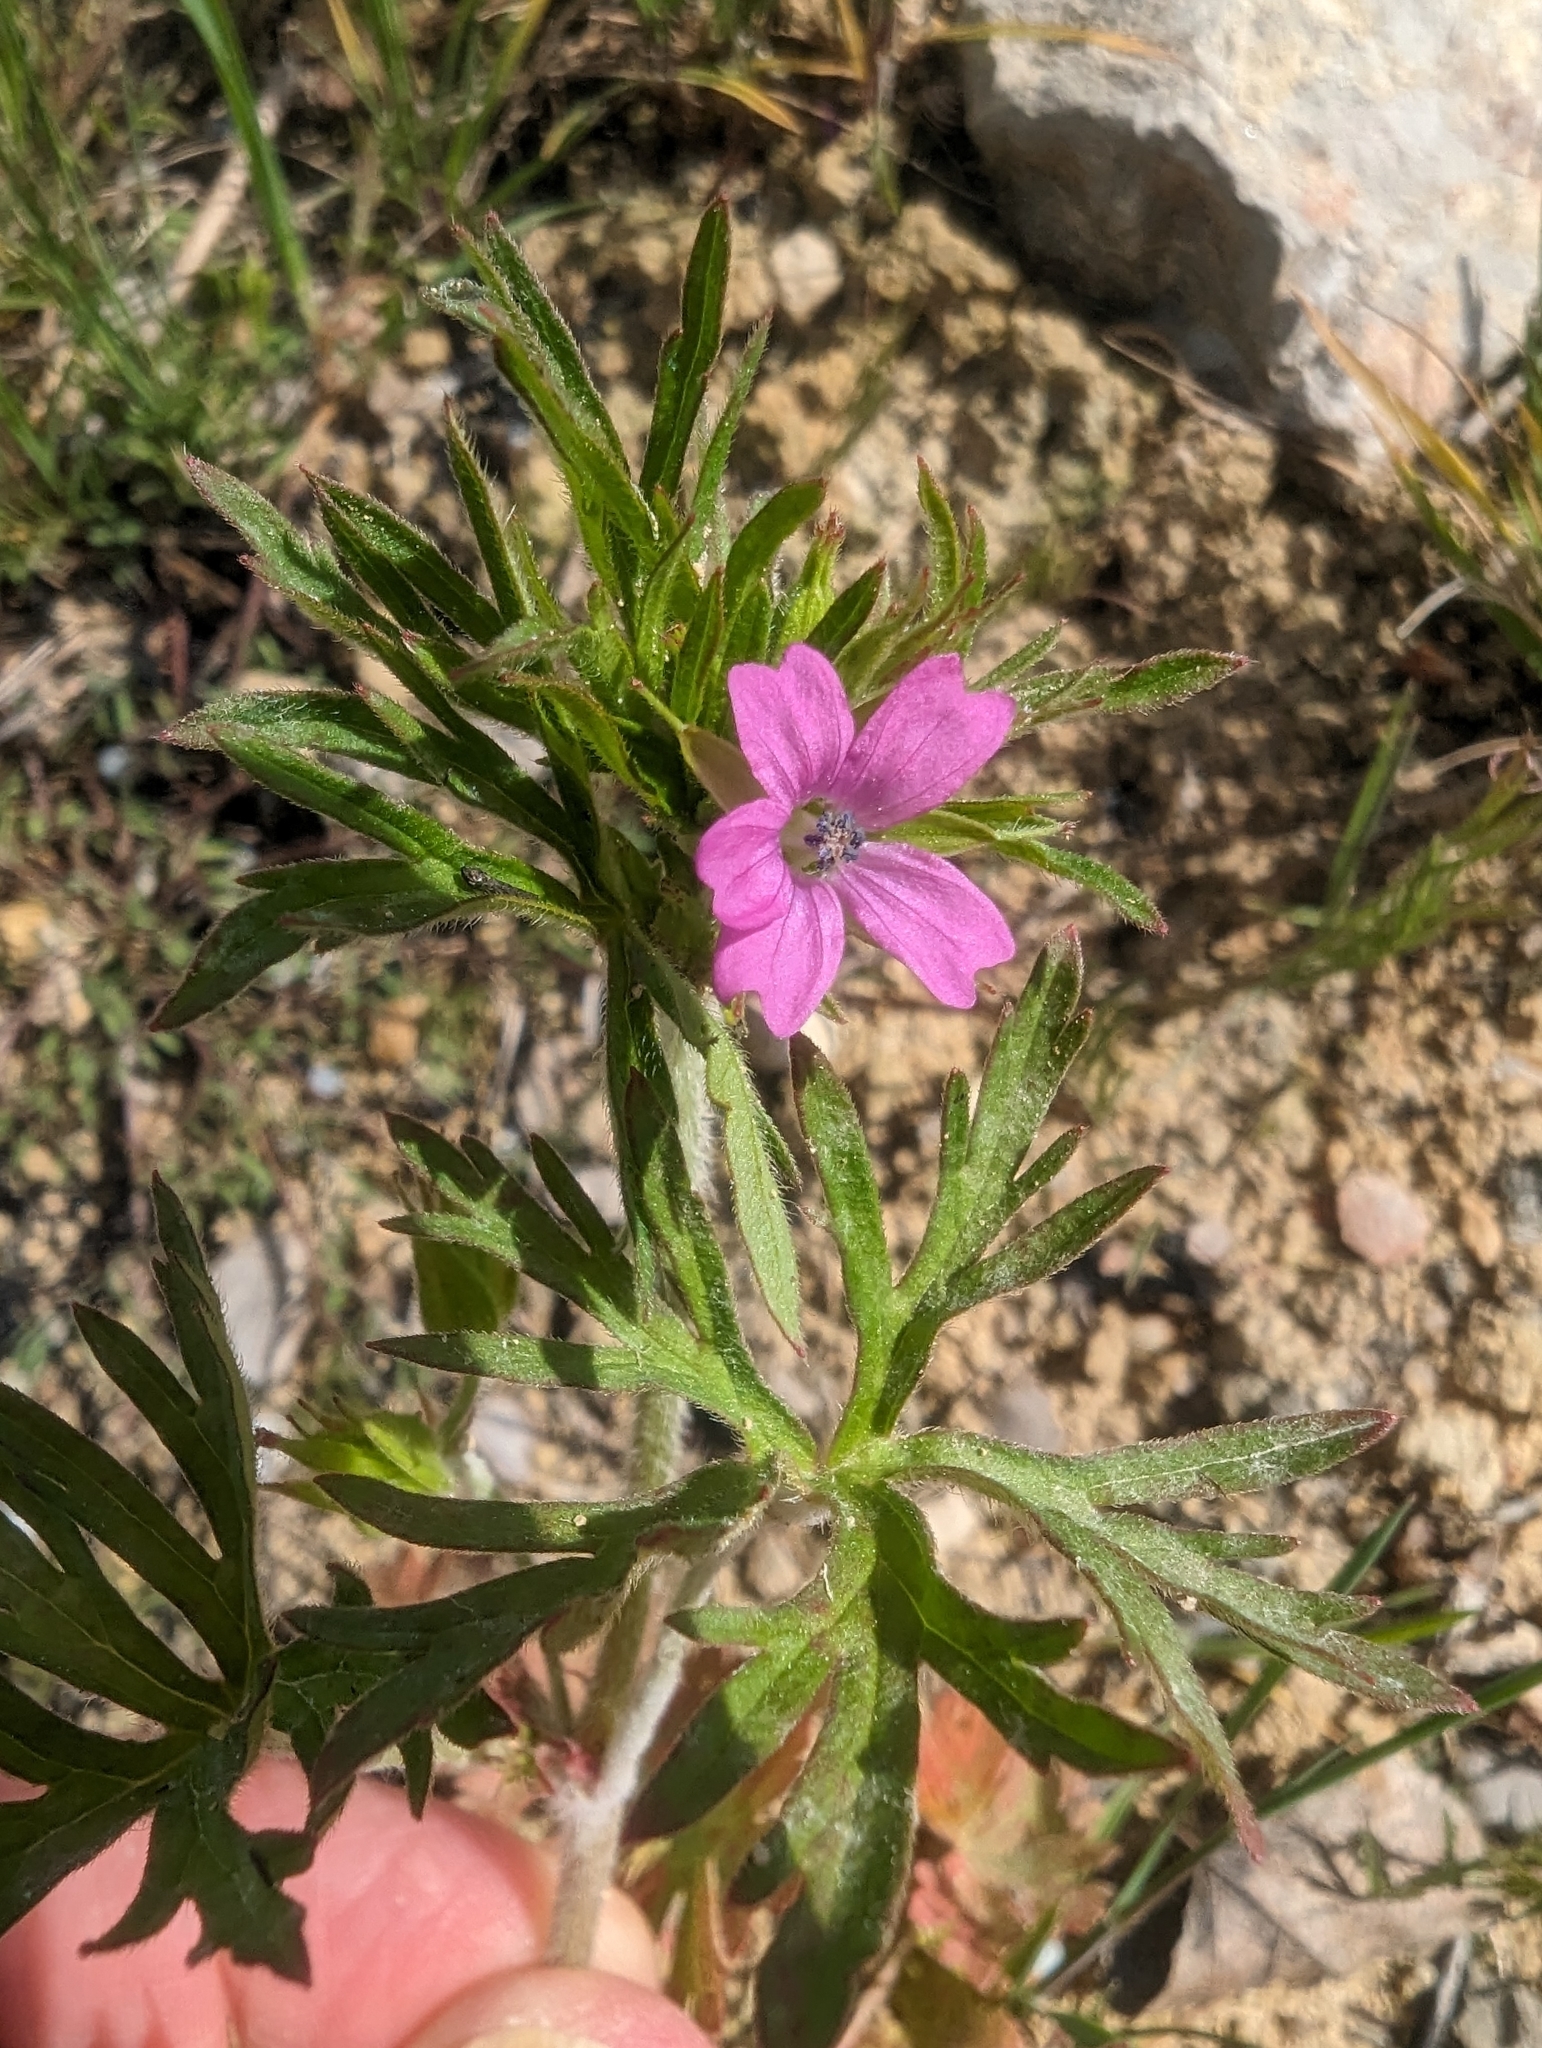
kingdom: Plantae
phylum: Tracheophyta
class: Magnoliopsida
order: Geraniales
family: Geraniaceae
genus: Geranium
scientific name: Geranium dissectum
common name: Cut-leaved crane's-bill
